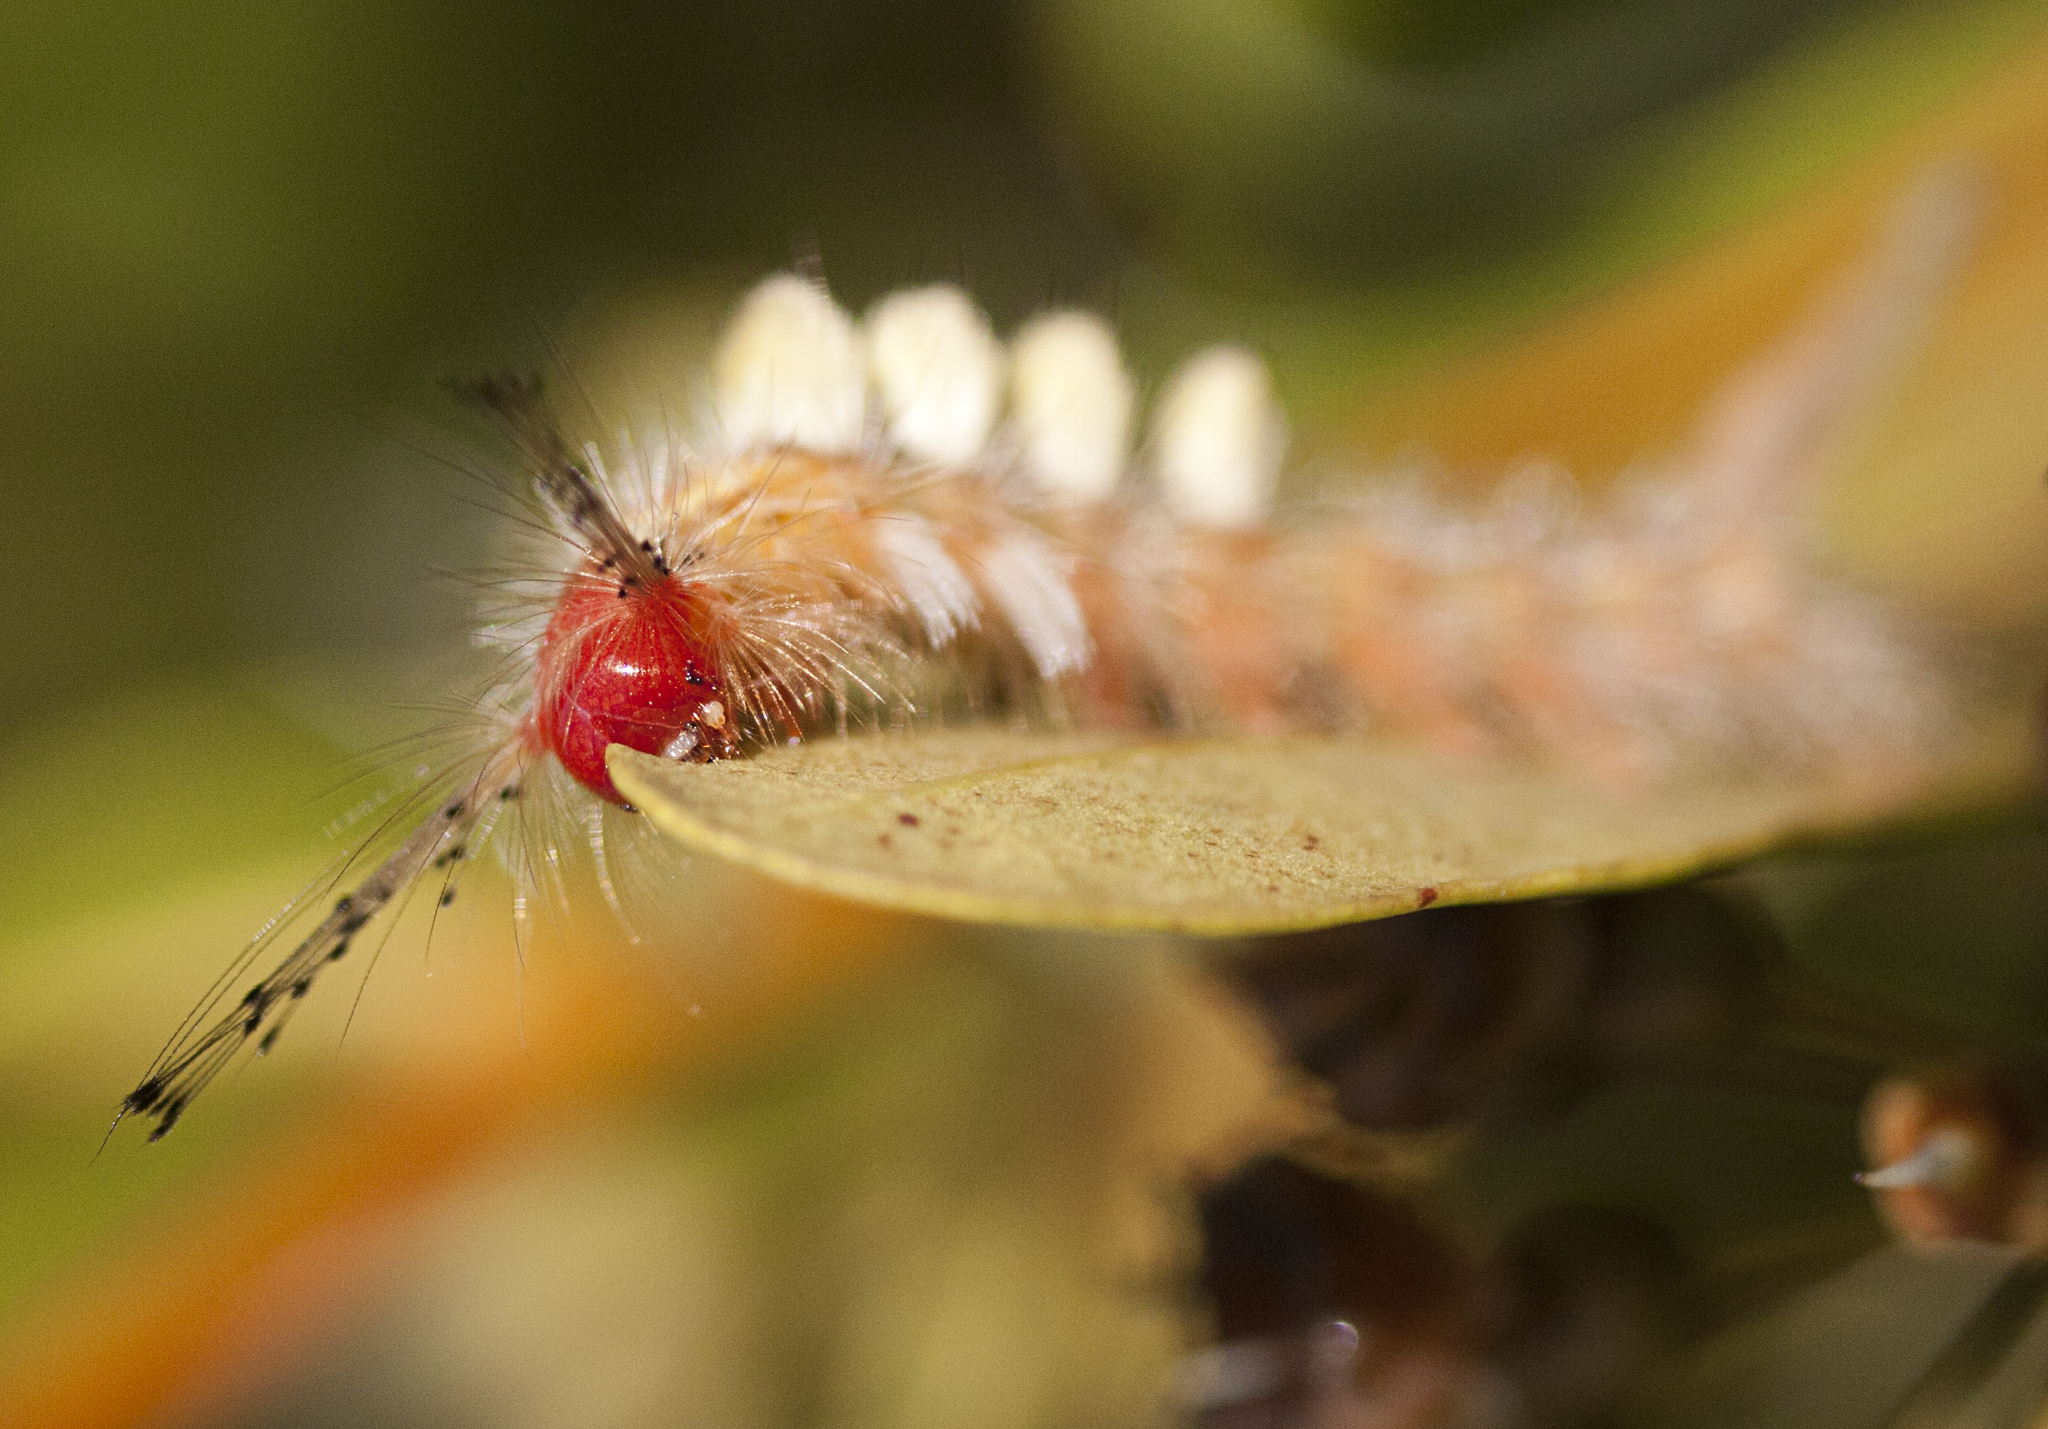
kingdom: Animalia
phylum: Arthropoda
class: Insecta
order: Lepidoptera
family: Erebidae
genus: Orgyia
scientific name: Orgyia australis
